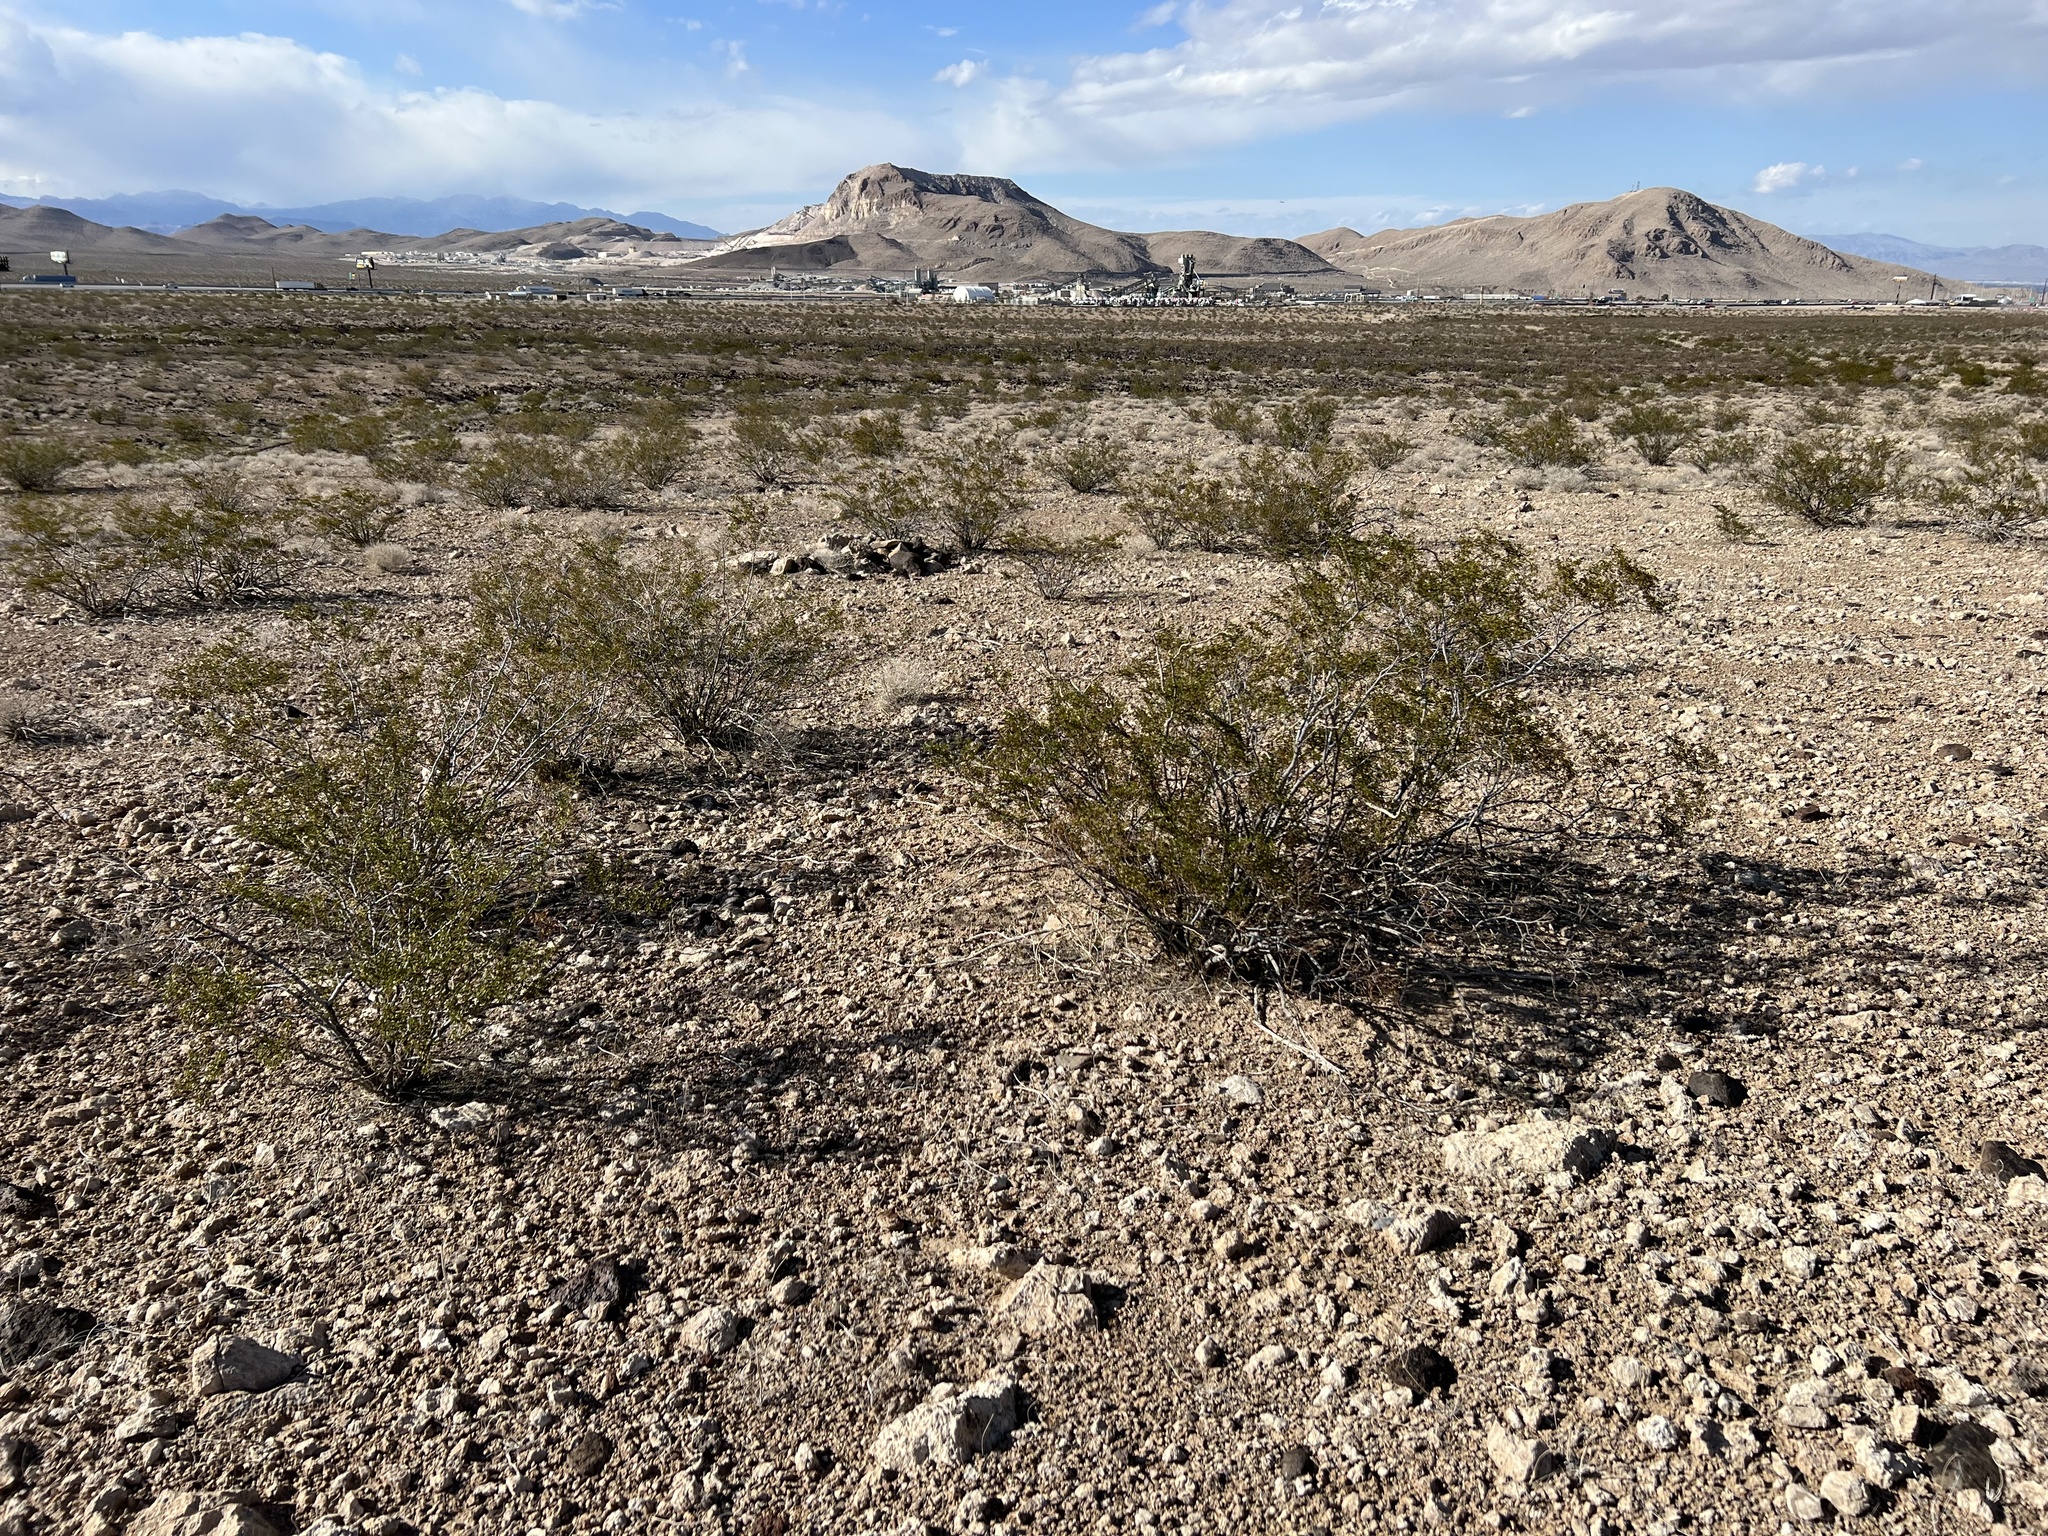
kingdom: Plantae
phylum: Tracheophyta
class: Magnoliopsida
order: Zygophyllales
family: Zygophyllaceae
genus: Larrea
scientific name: Larrea tridentata
